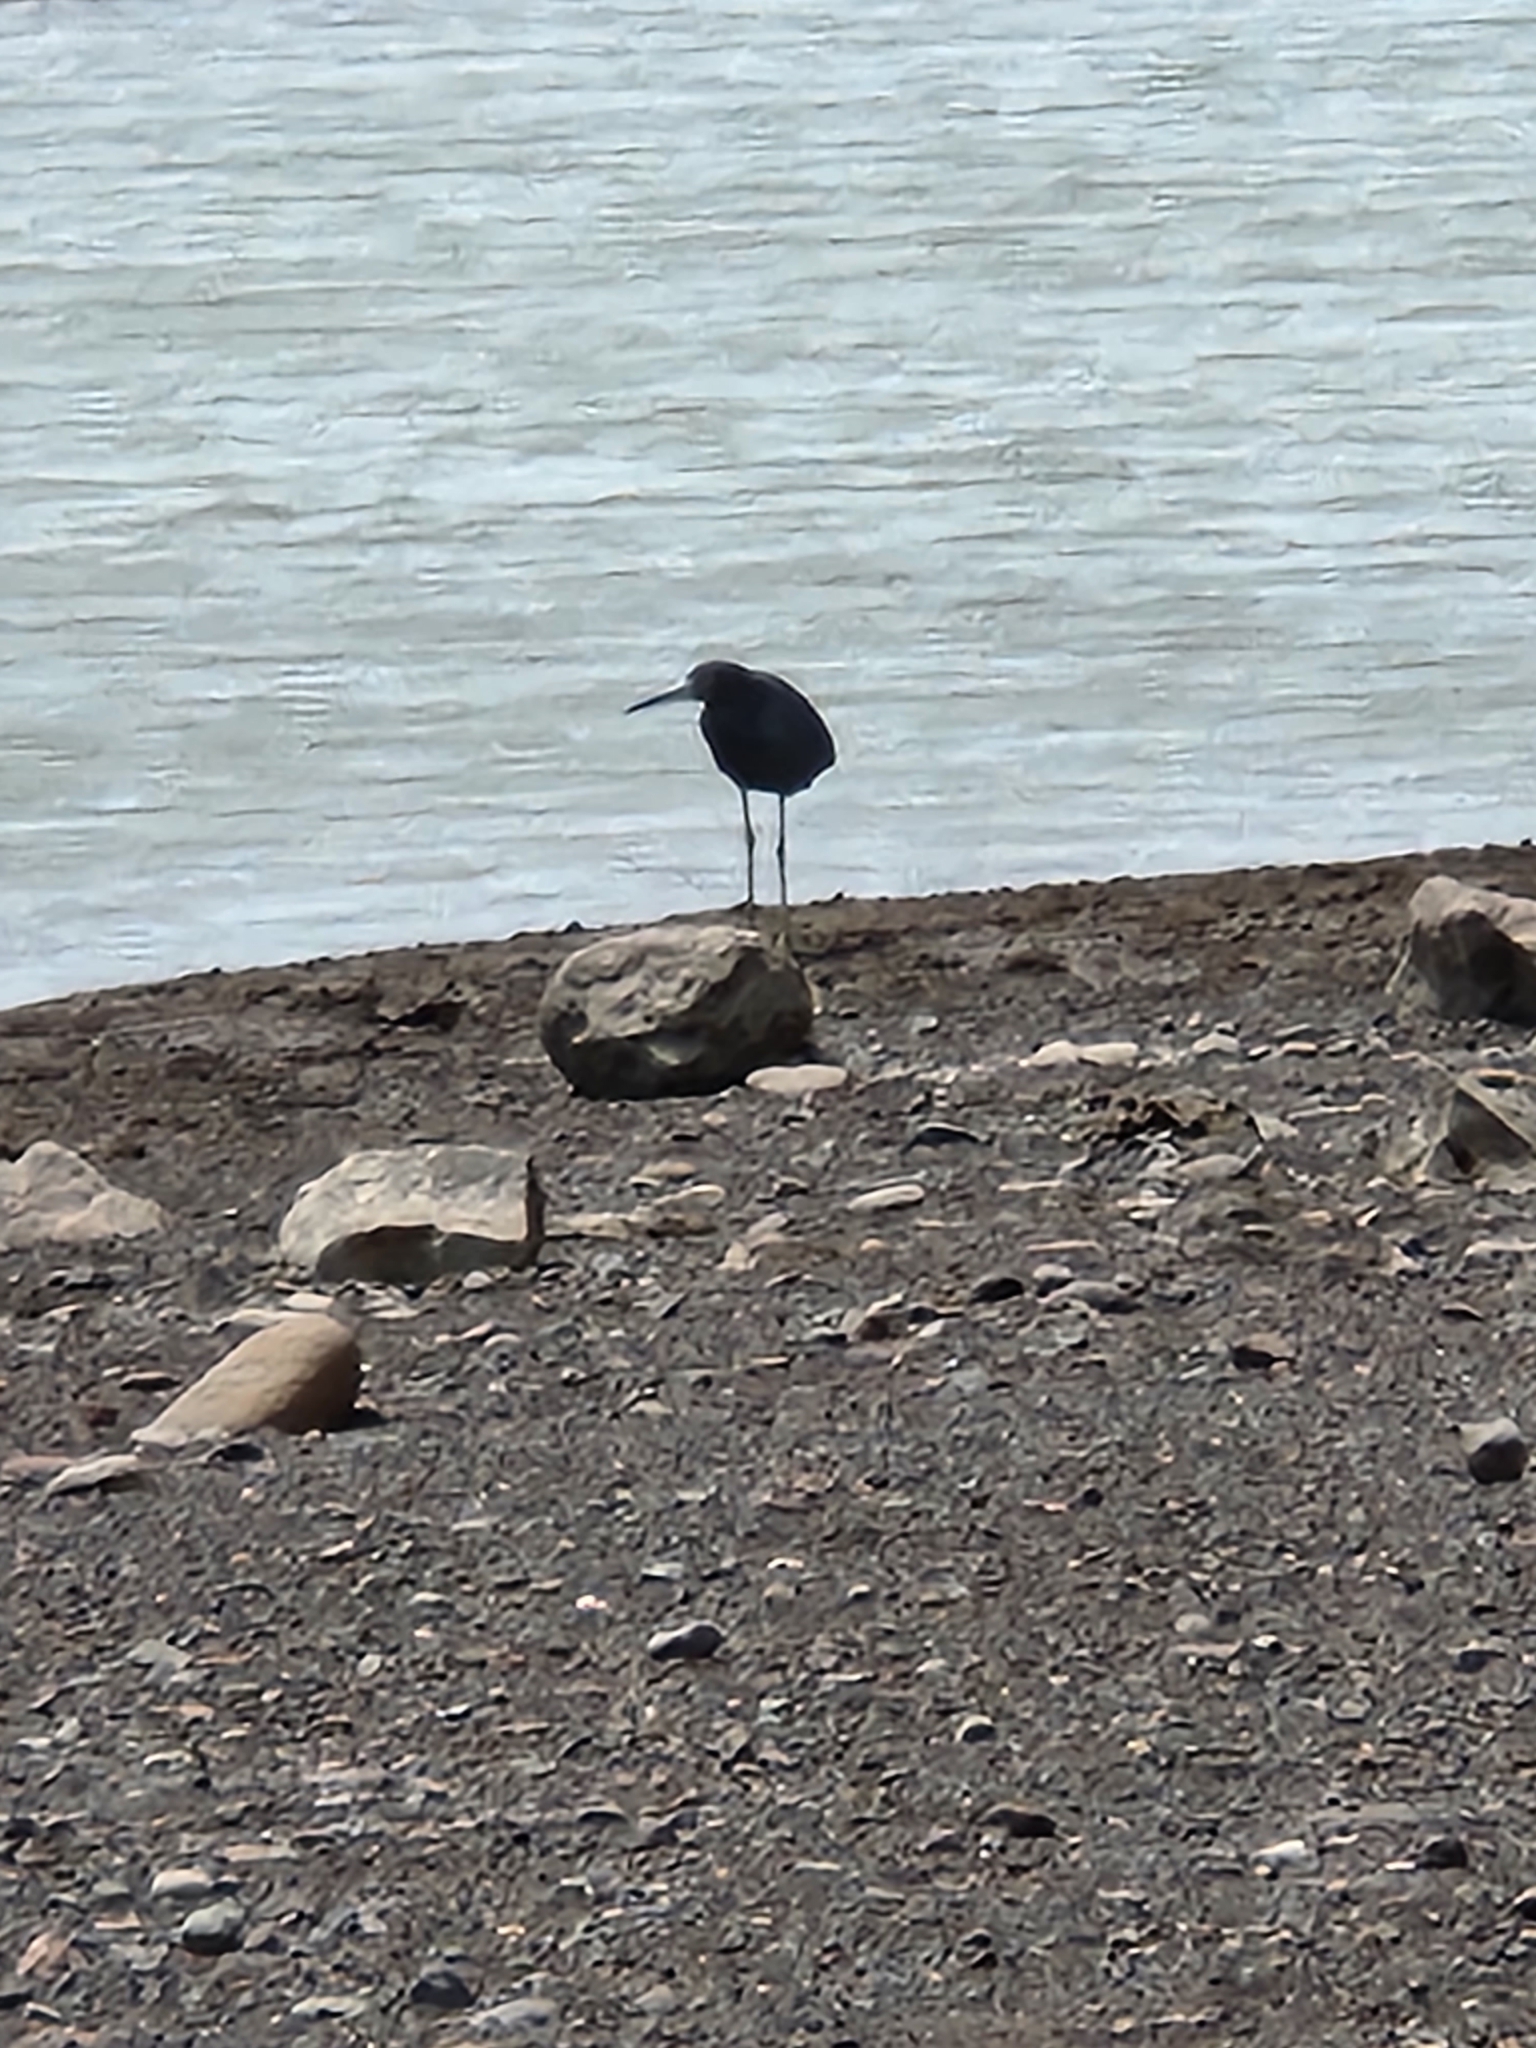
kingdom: Animalia
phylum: Chordata
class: Aves
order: Pelecaniformes
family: Ardeidae
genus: Egretta
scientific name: Egretta caerulea
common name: Little blue heron
